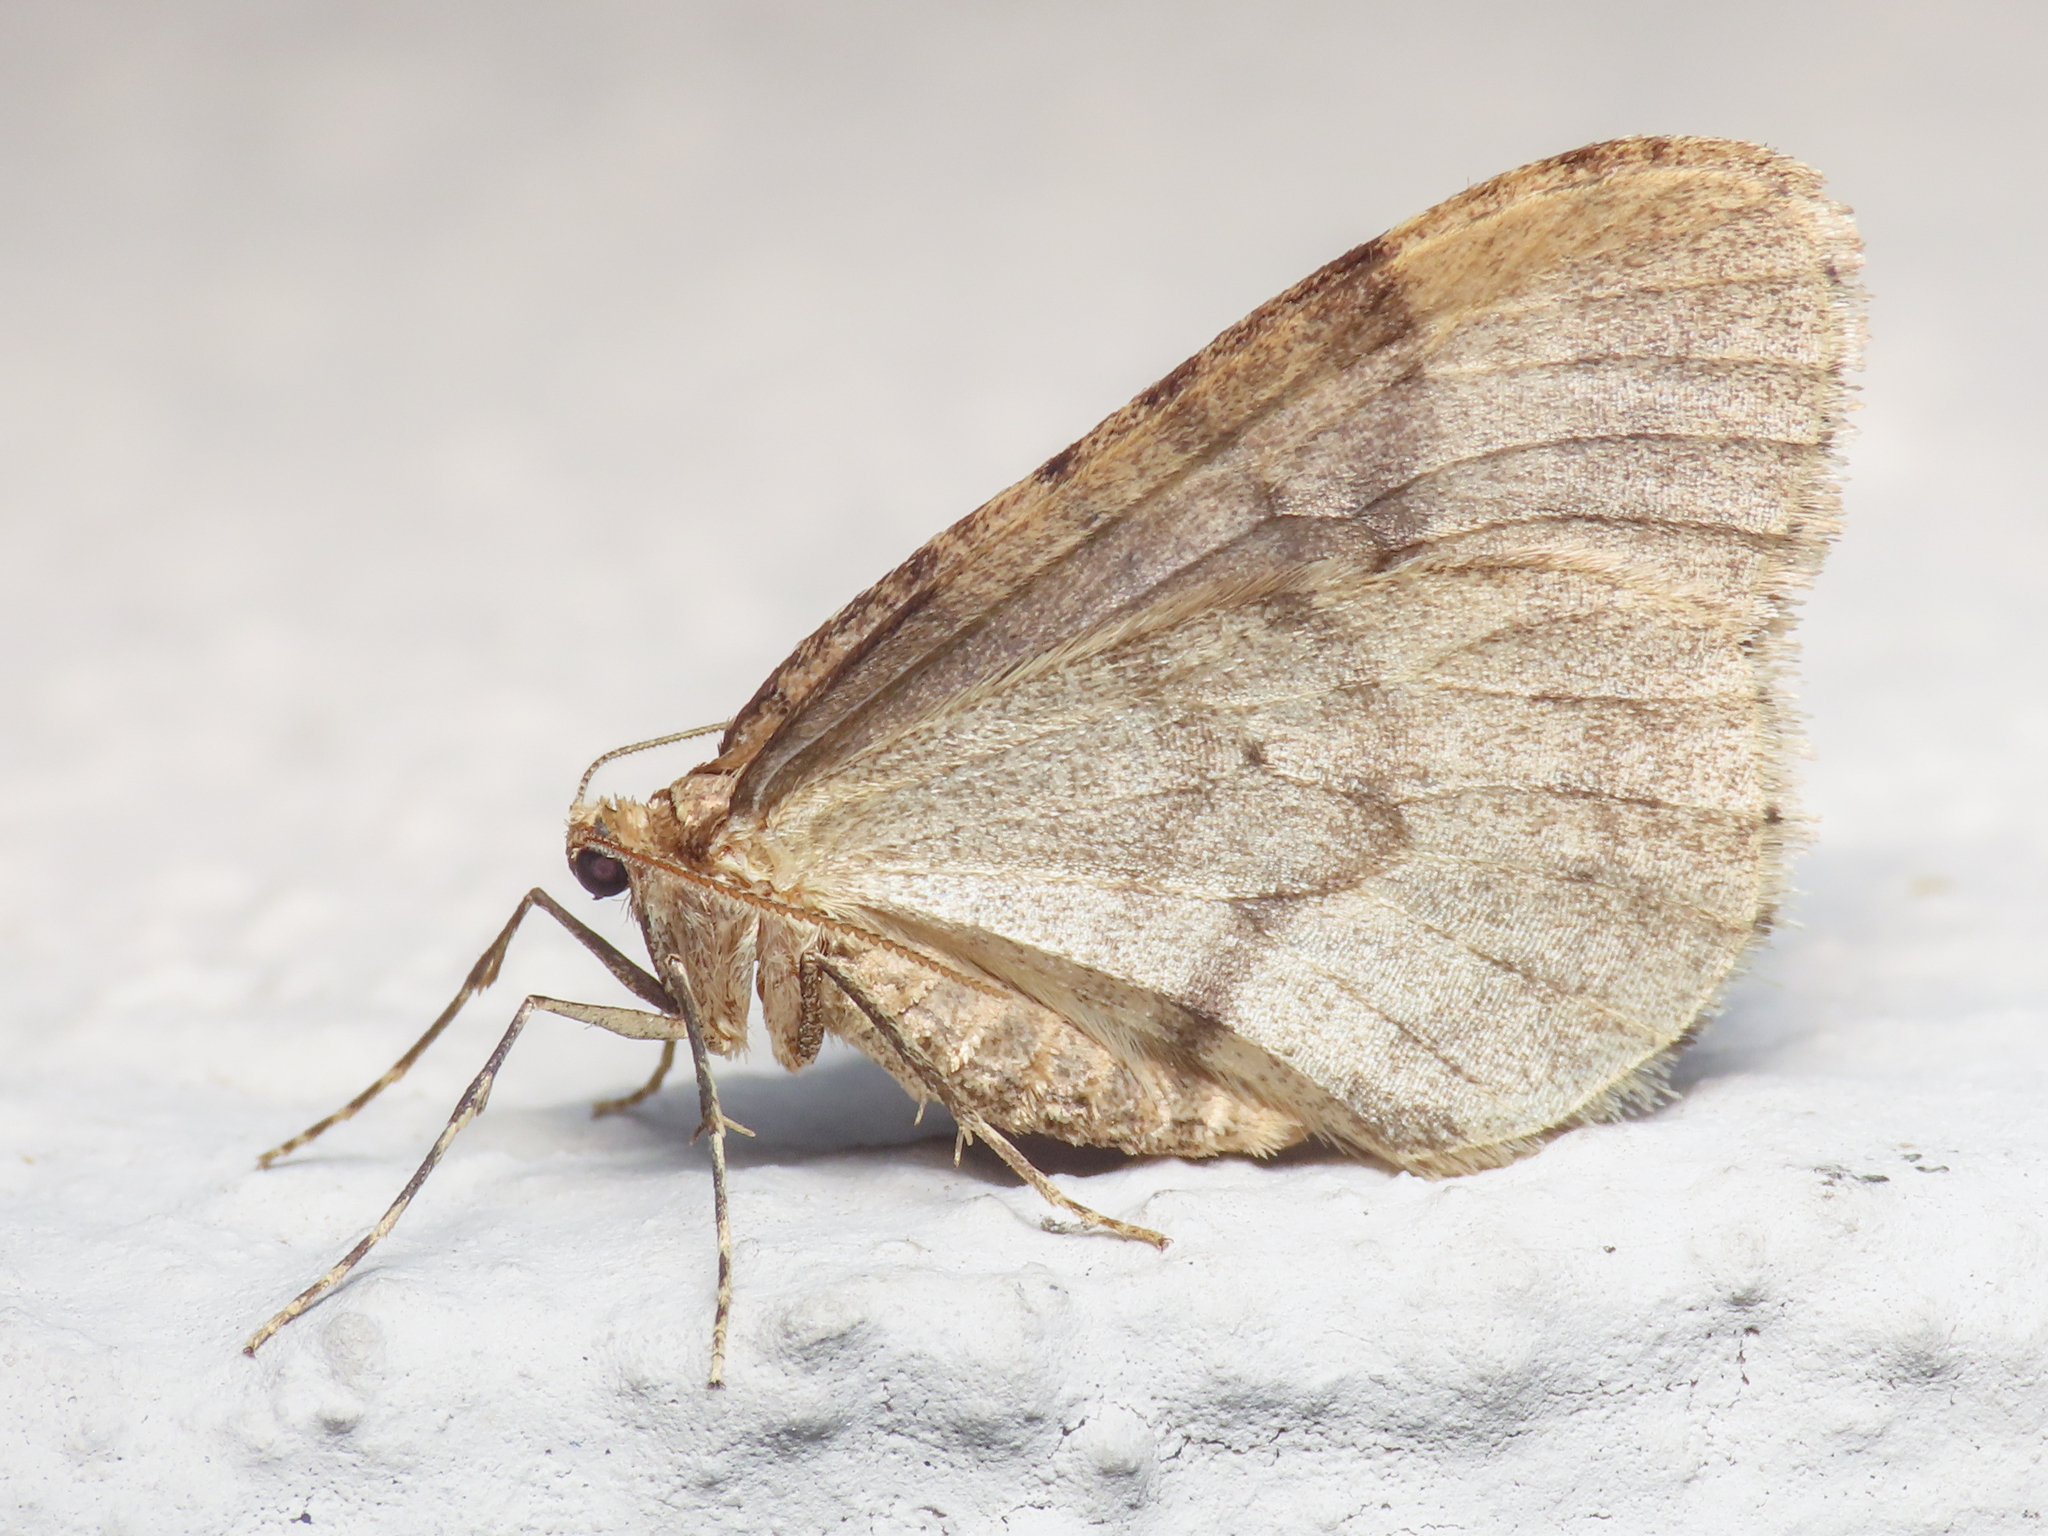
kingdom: Animalia
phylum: Arthropoda
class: Insecta
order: Lepidoptera
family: Geometridae
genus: Operophtera
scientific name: Operophtera brumata
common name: Winter moth
